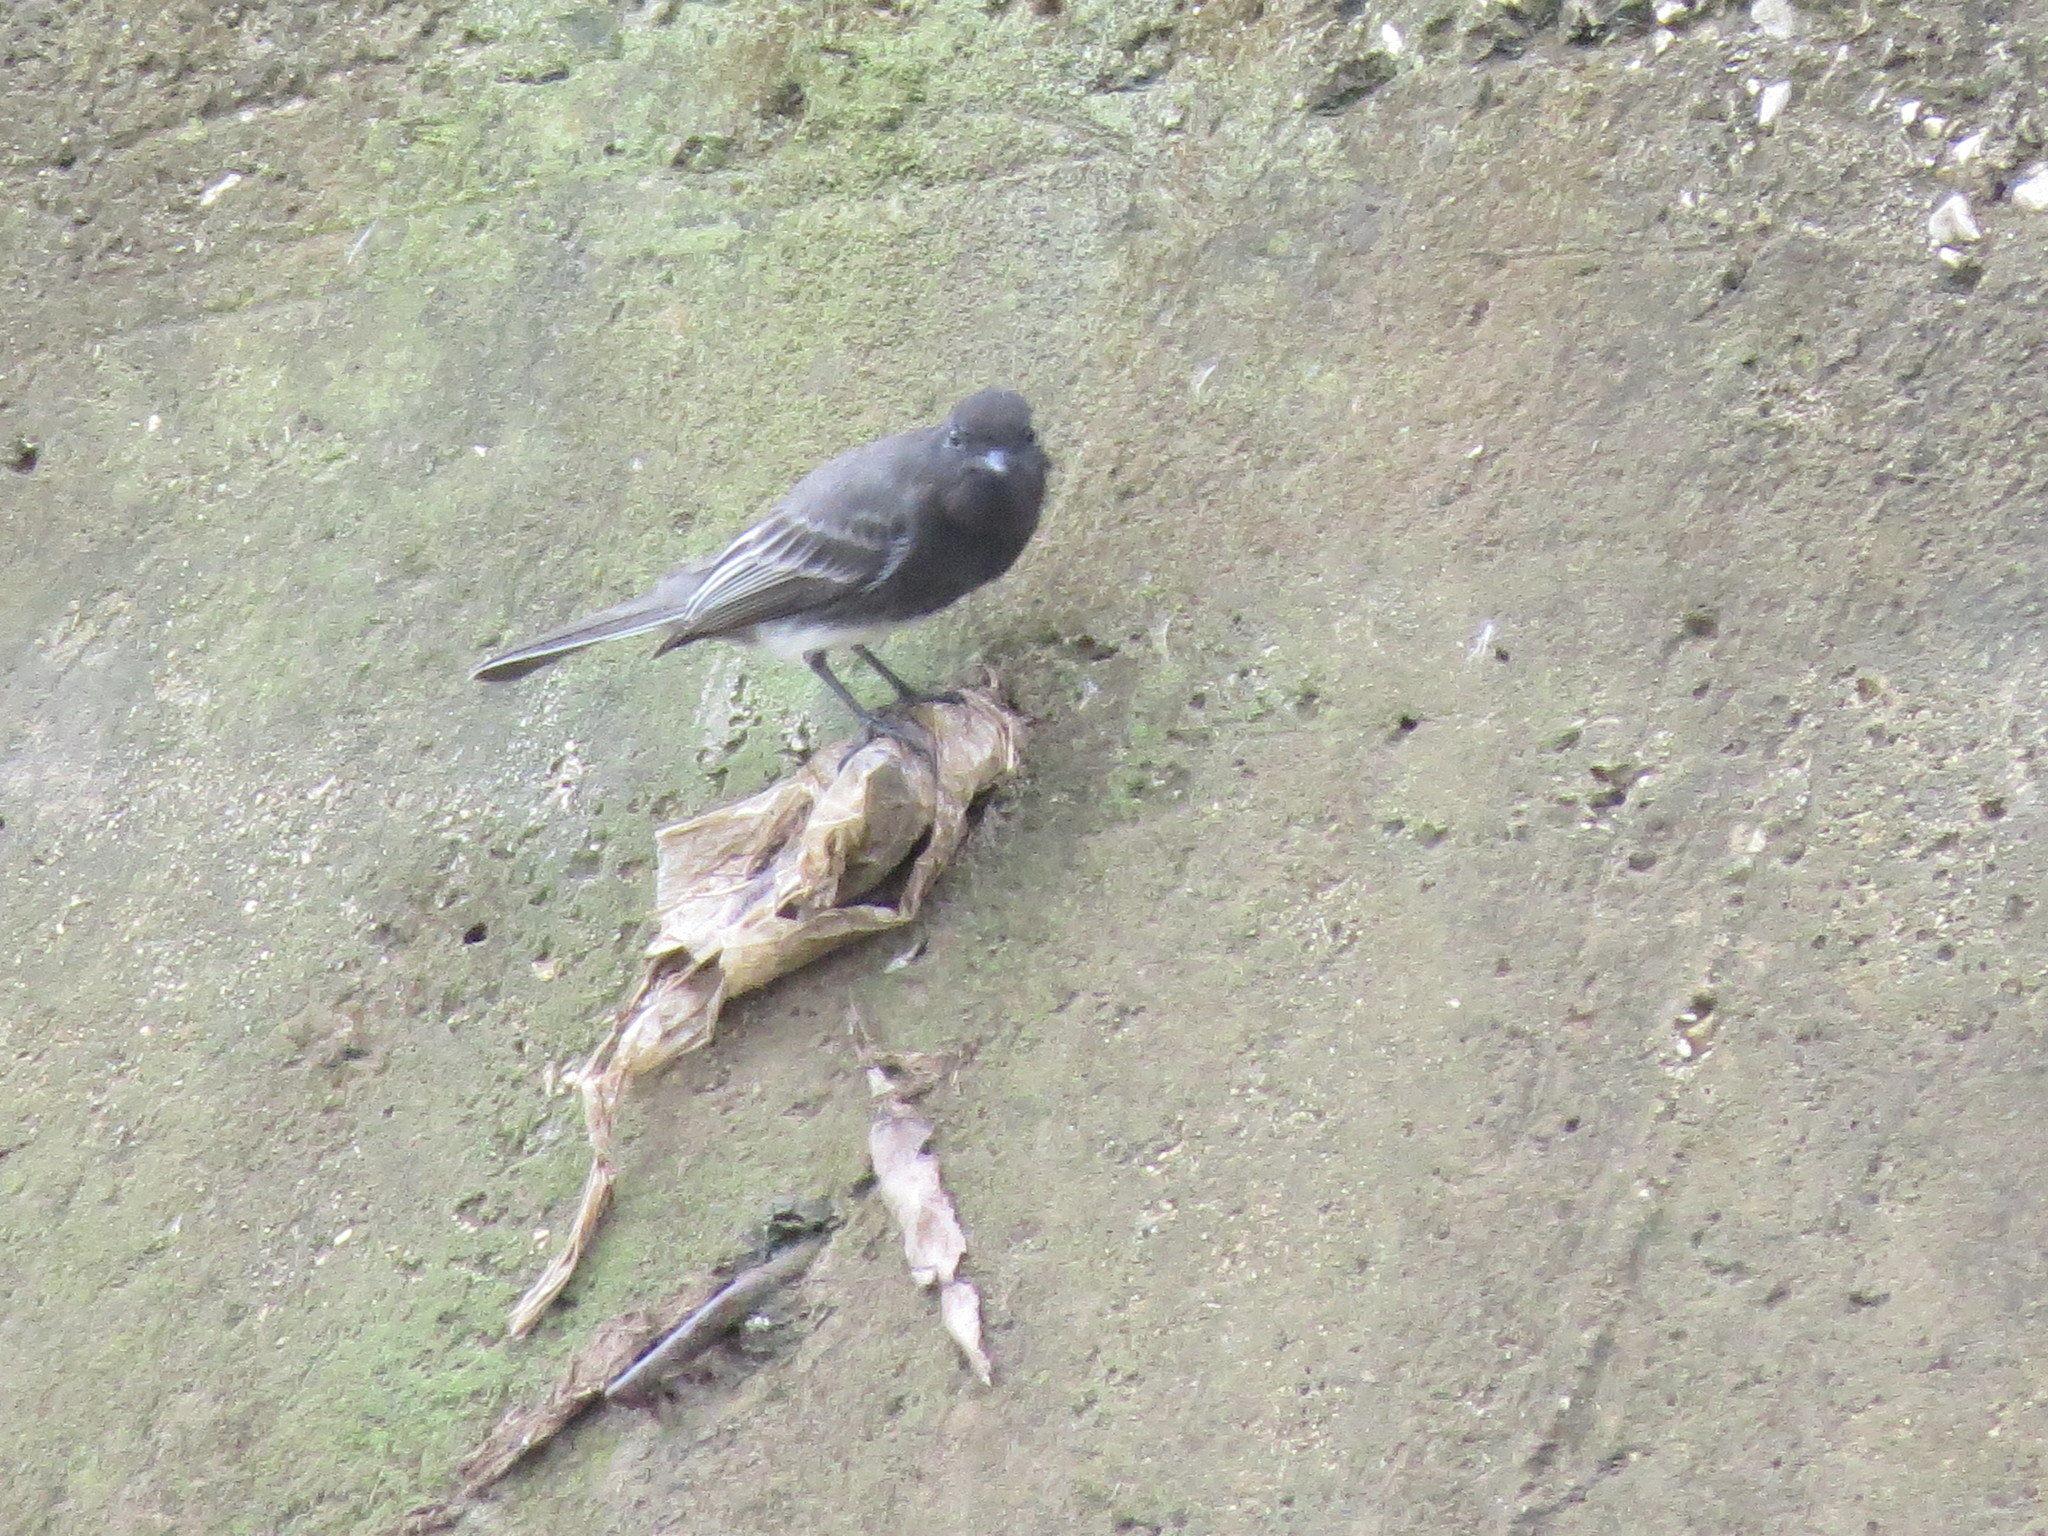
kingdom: Animalia
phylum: Chordata
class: Aves
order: Passeriformes
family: Tyrannidae
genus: Sayornis
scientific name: Sayornis nigricans
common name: Black phoebe
